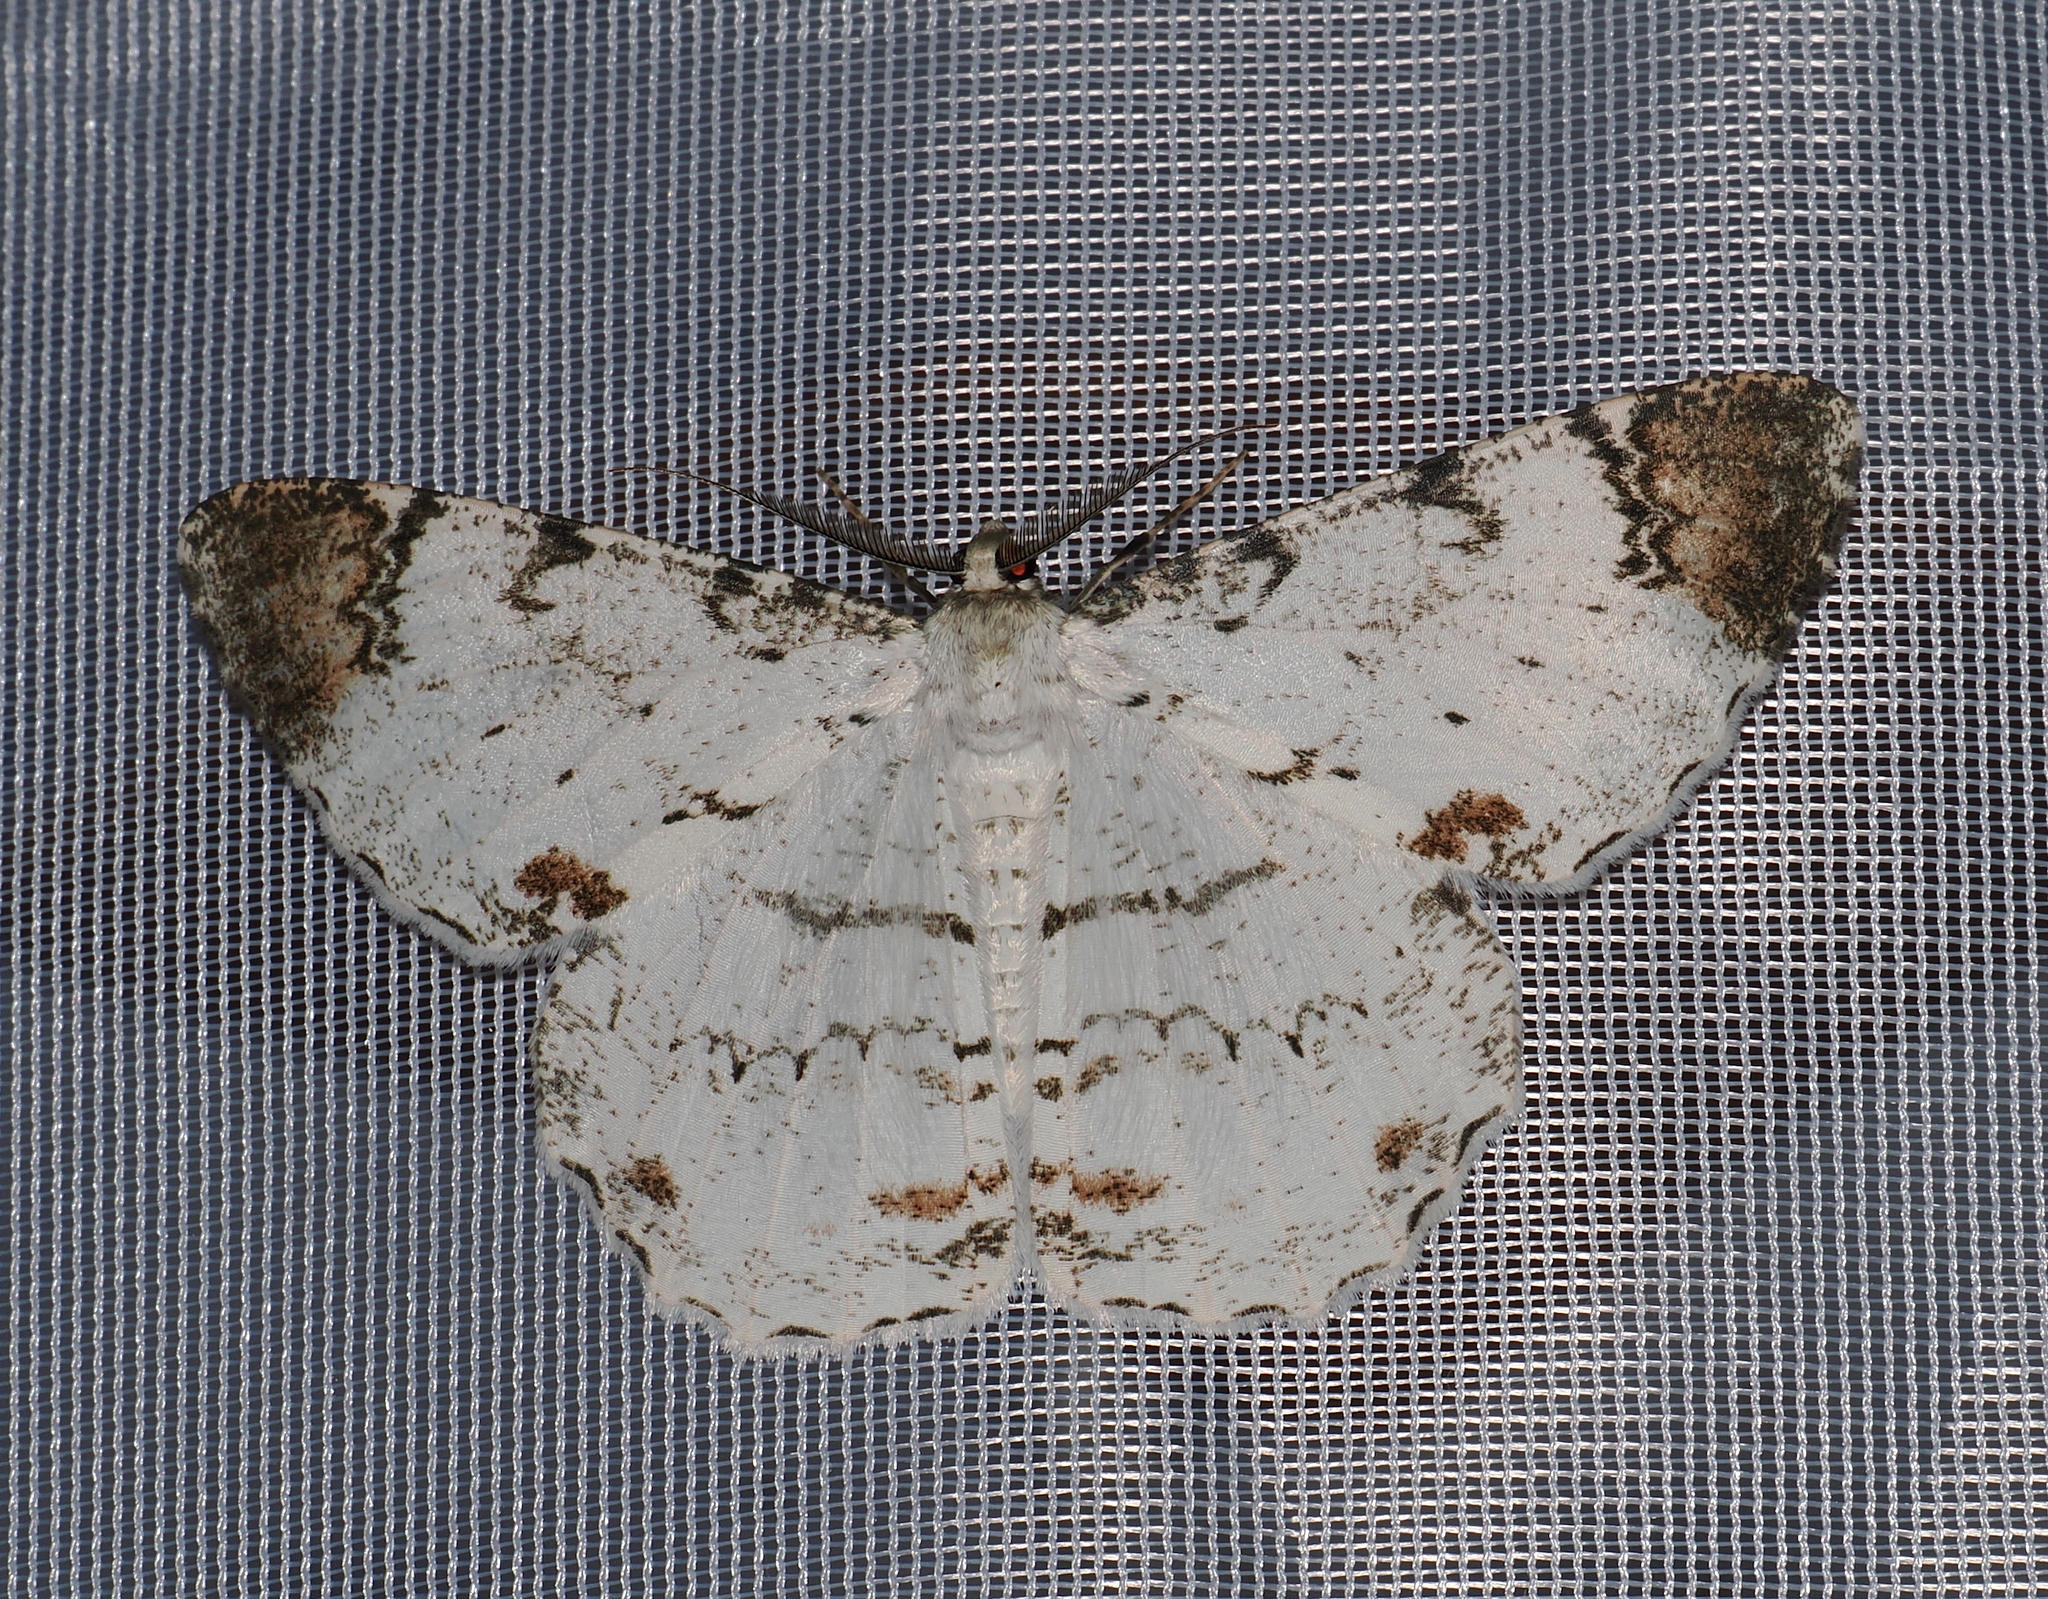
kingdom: Animalia
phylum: Arthropoda
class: Insecta
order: Lepidoptera
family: Geometridae
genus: Epimecis
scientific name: Epimecis puellaria
